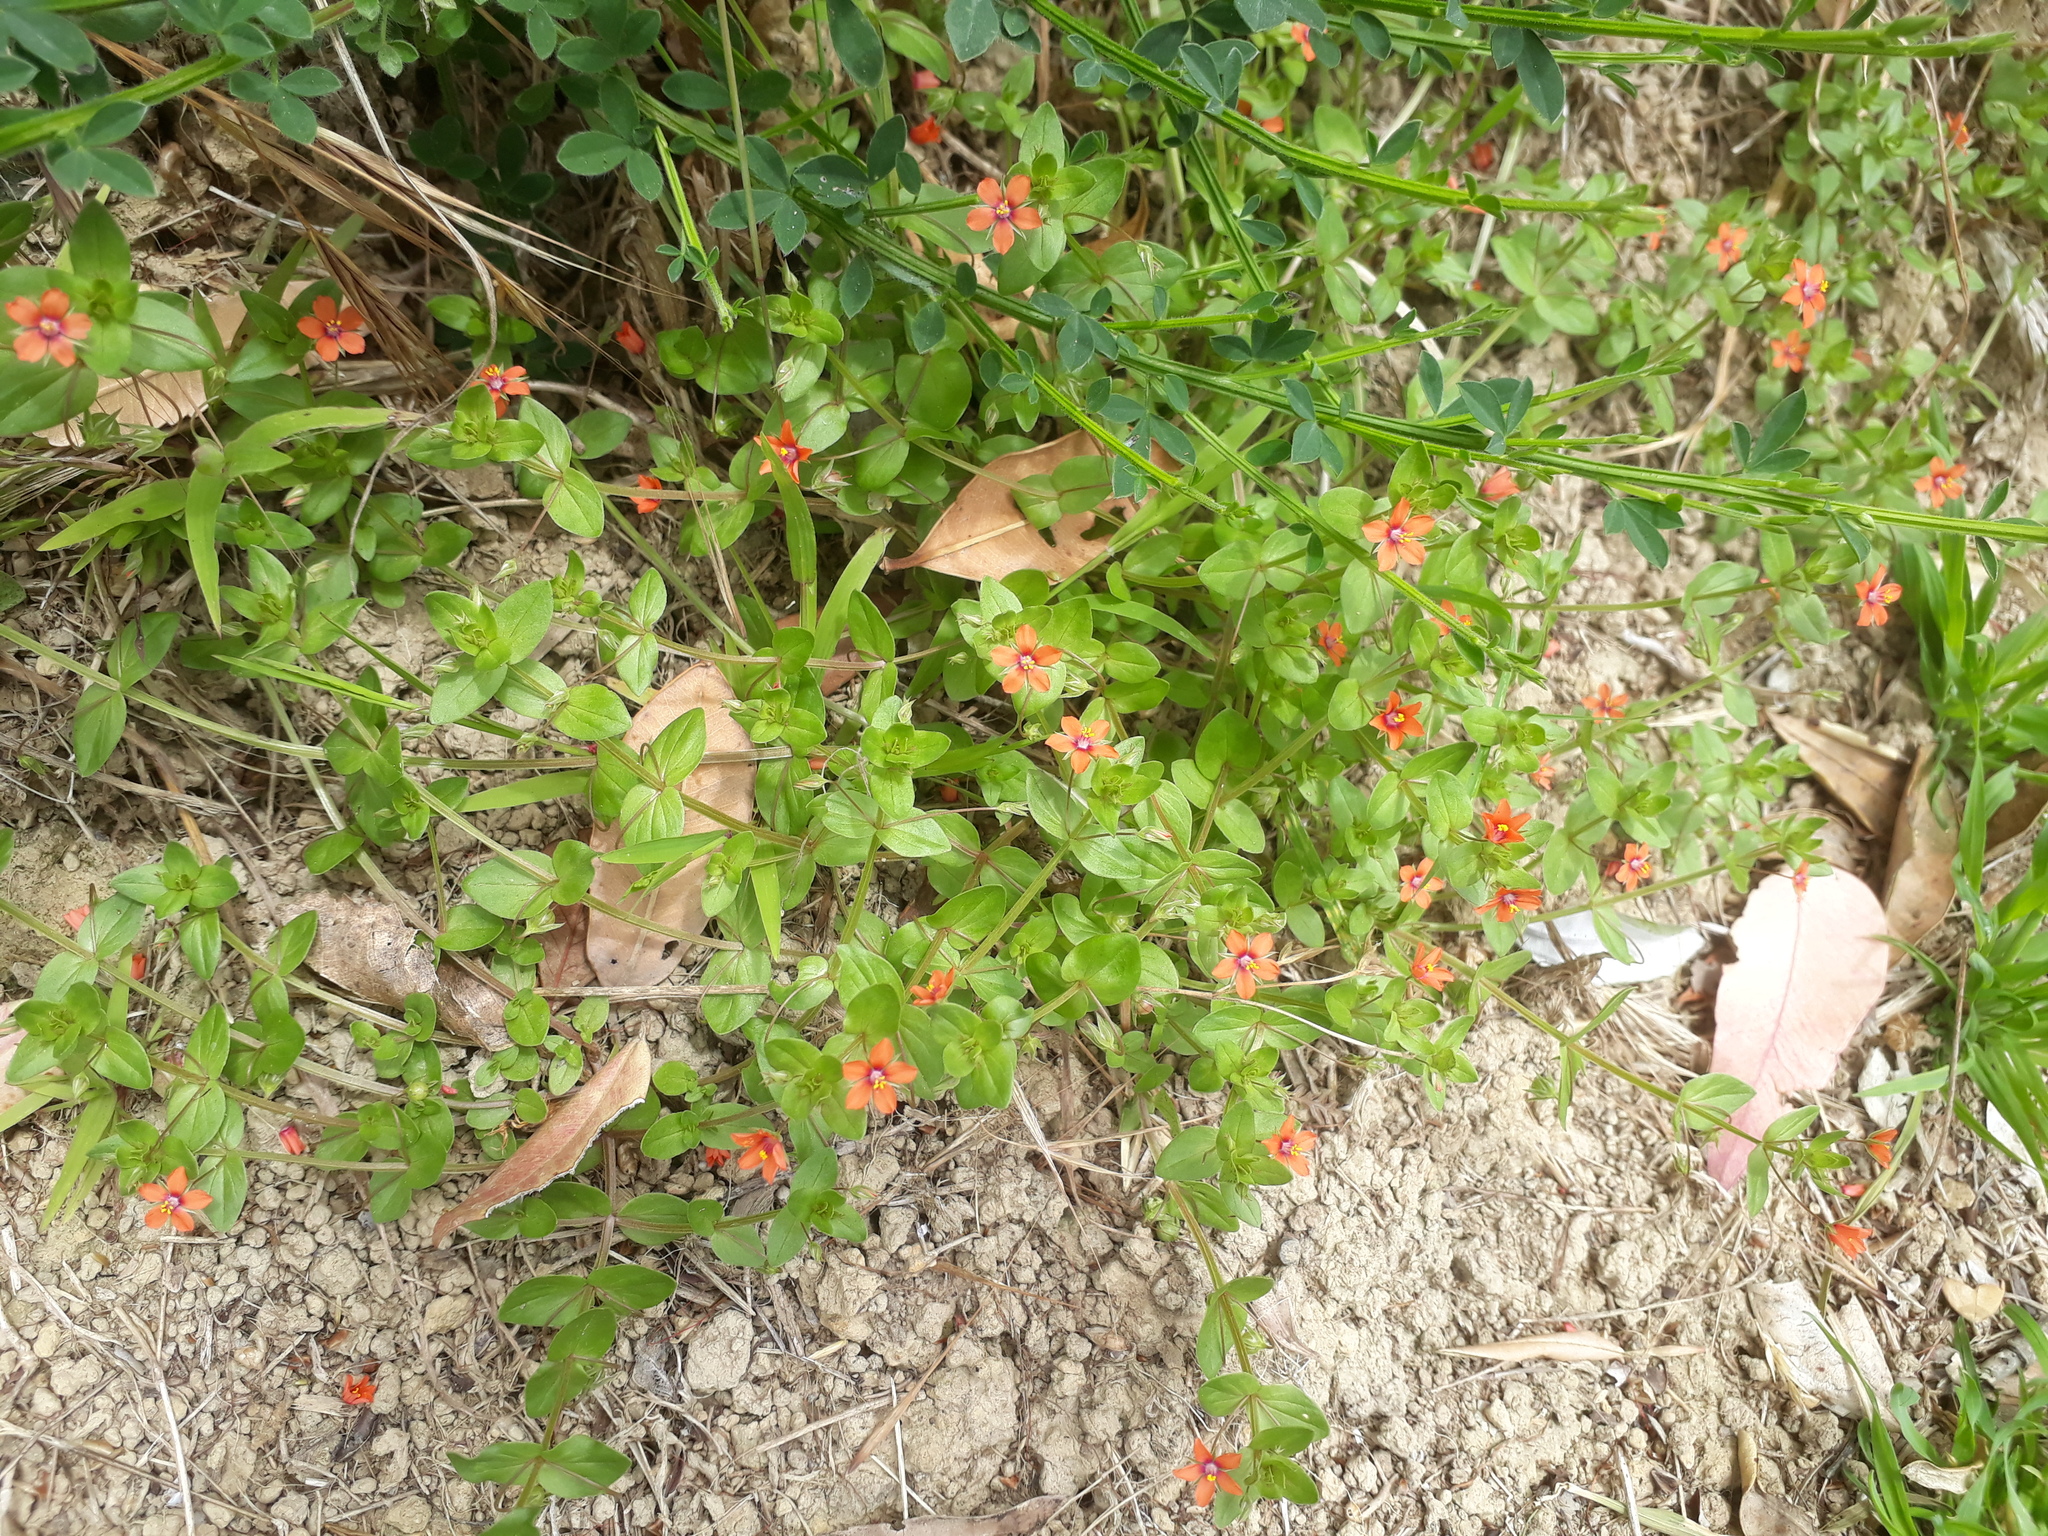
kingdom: Plantae
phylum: Tracheophyta
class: Magnoliopsida
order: Ericales
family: Primulaceae
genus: Lysimachia
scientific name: Lysimachia arvensis
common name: Scarlet pimpernel
